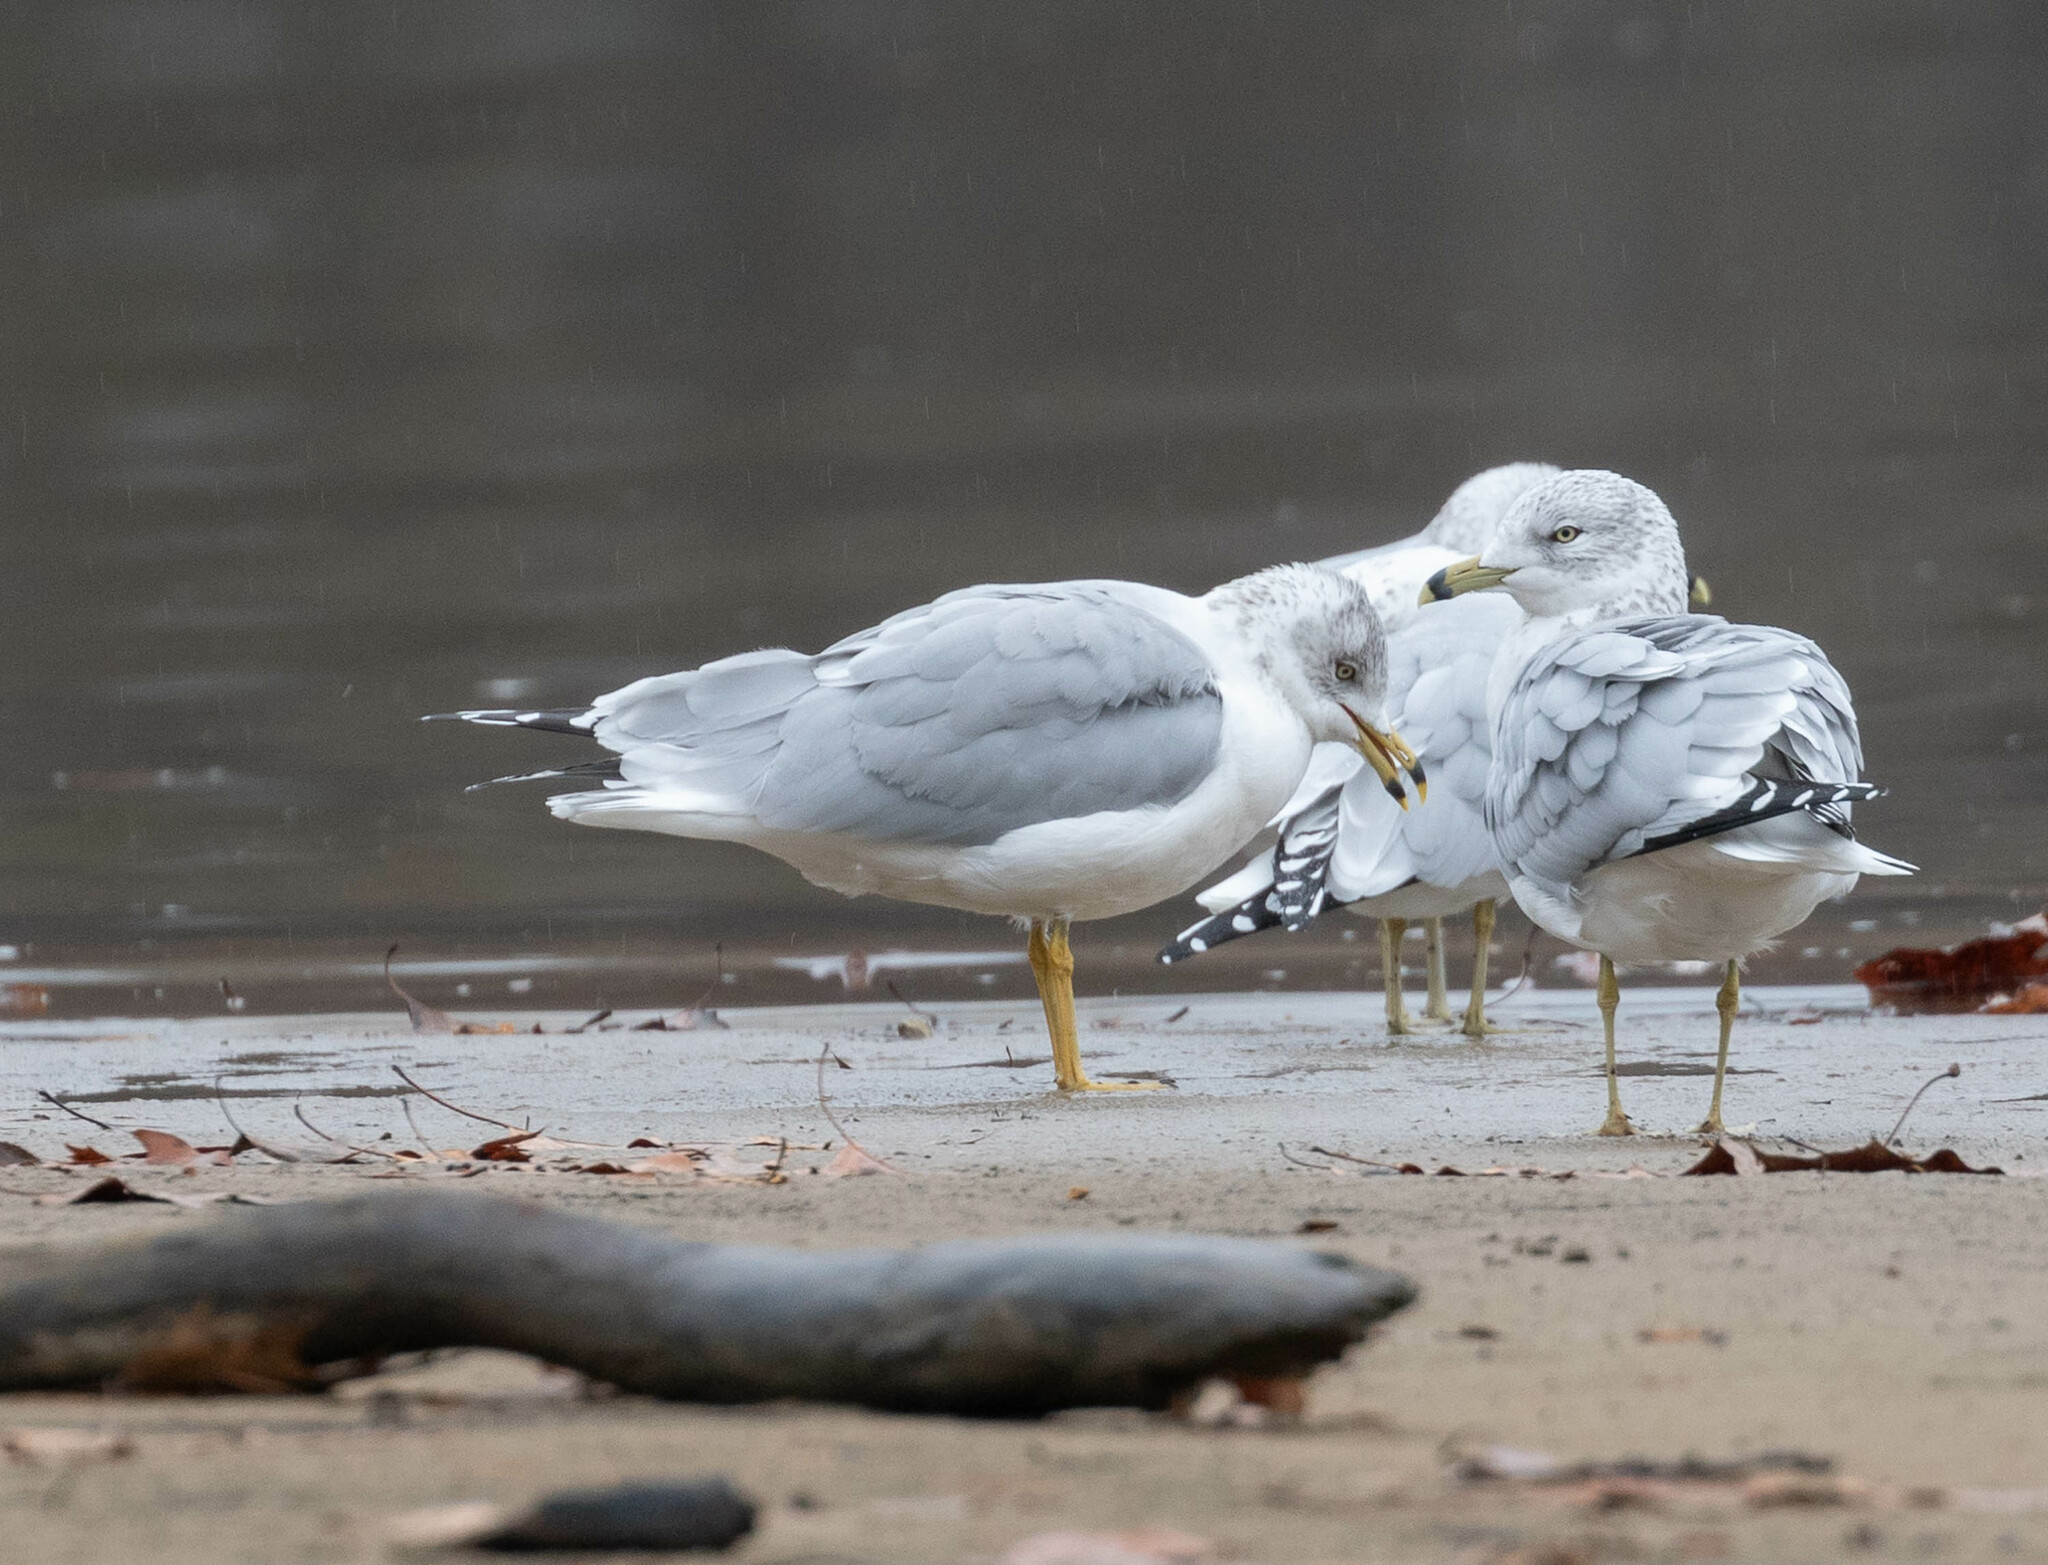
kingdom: Animalia
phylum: Chordata
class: Aves
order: Charadriiformes
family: Laridae
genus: Larus
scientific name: Larus delawarensis
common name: Ring-billed gull
